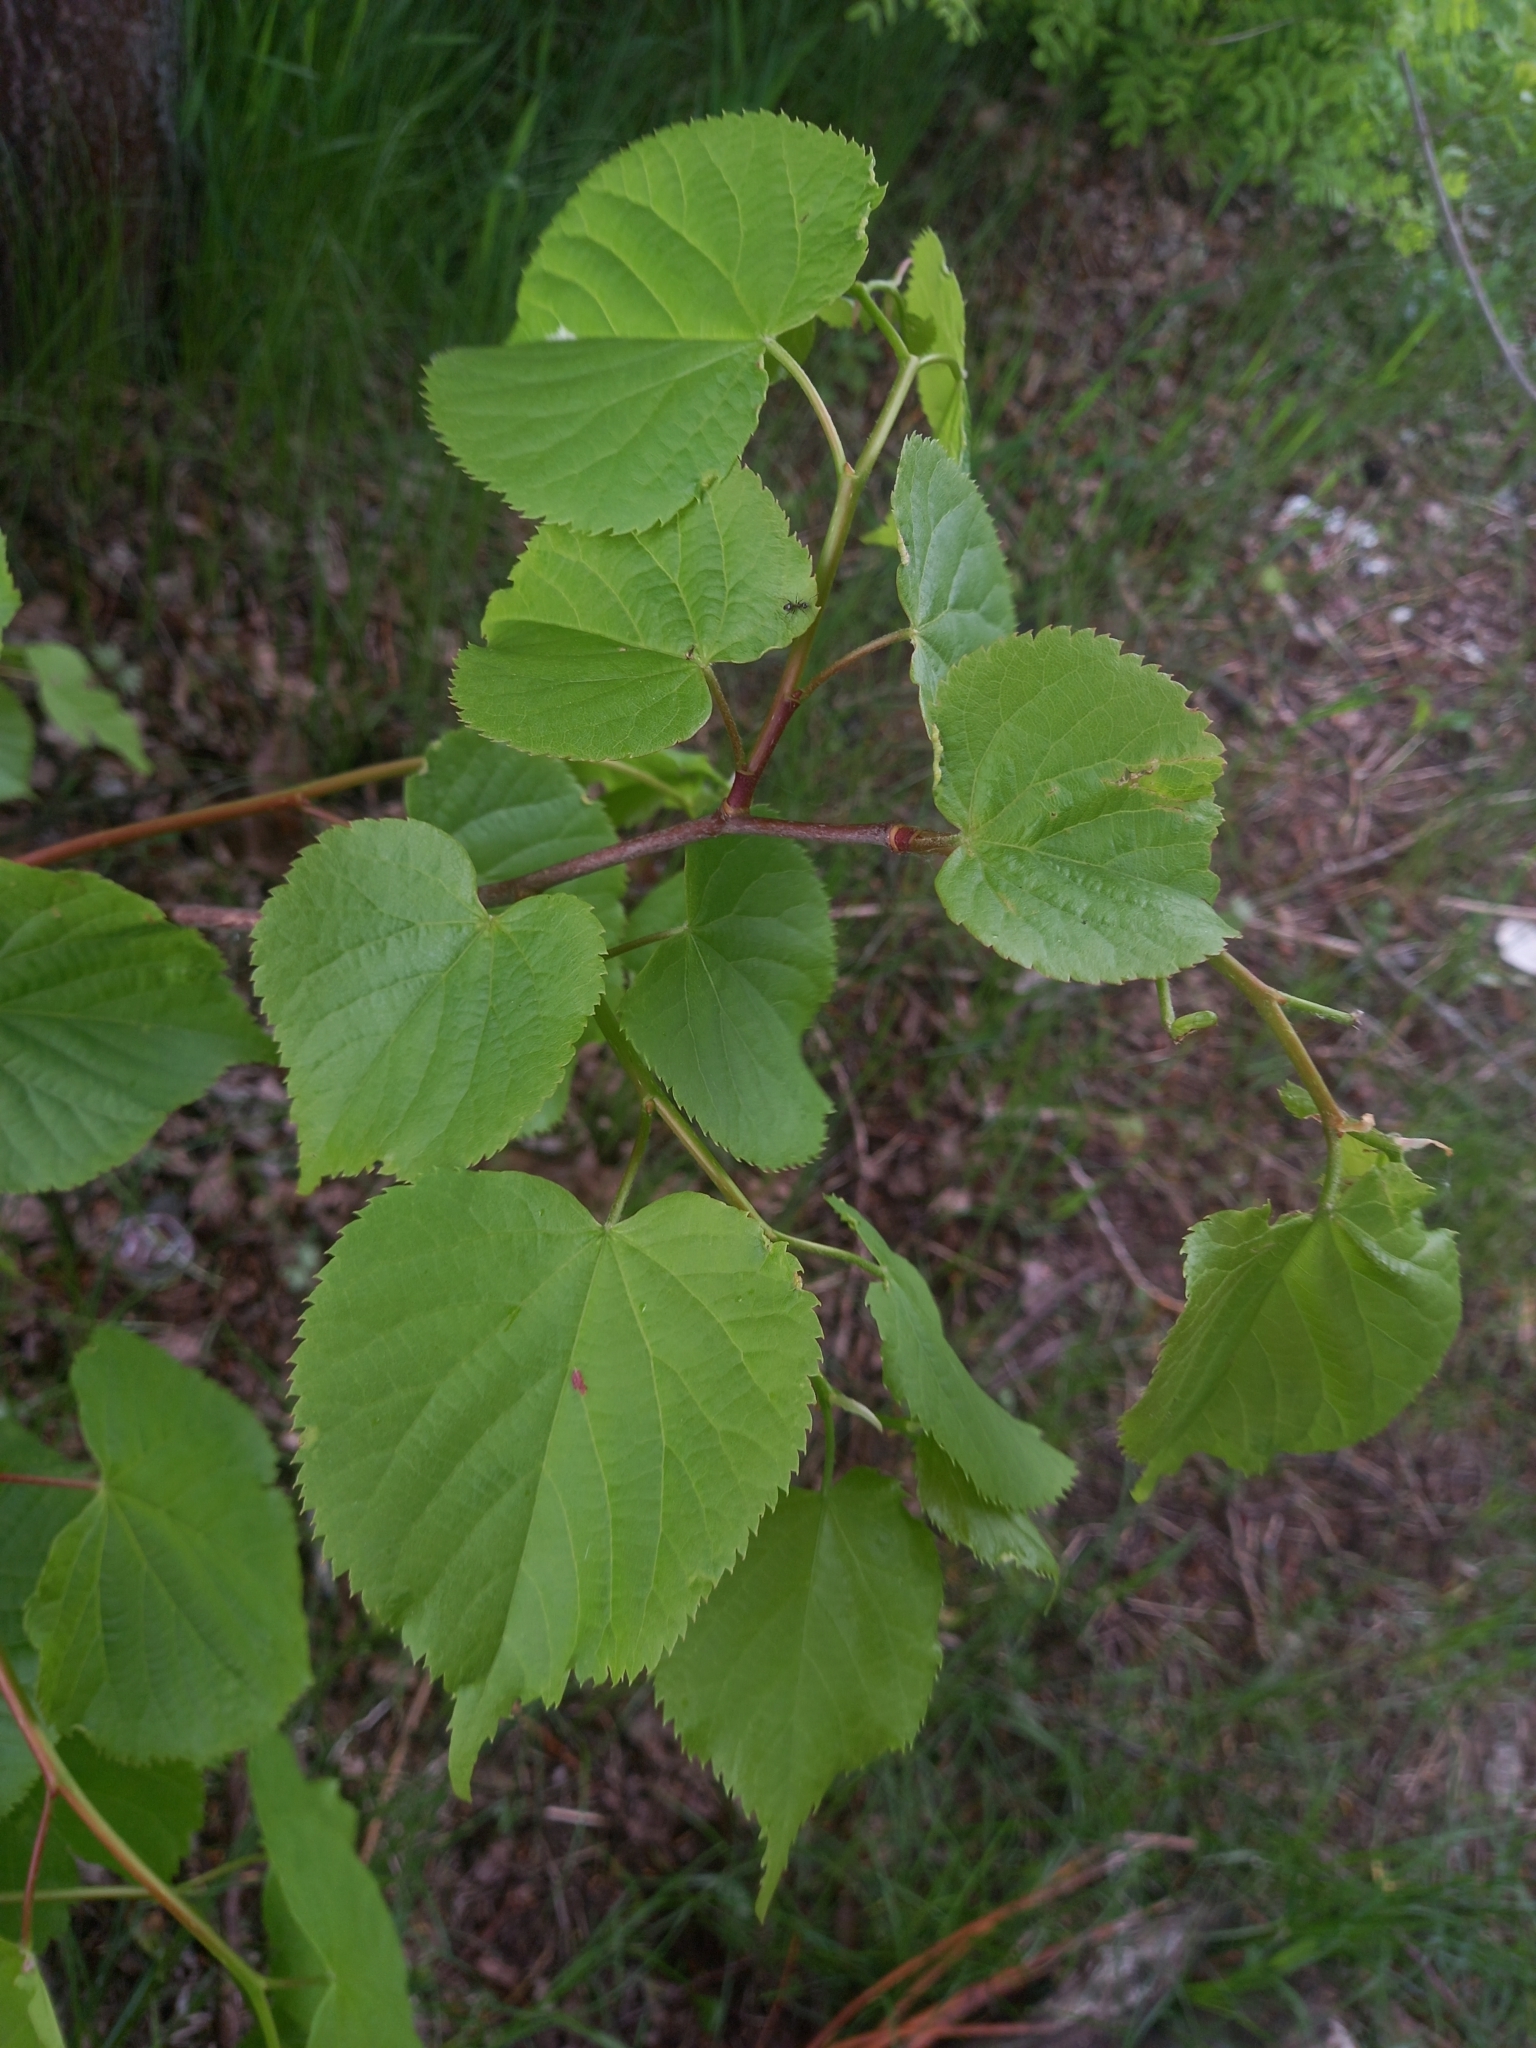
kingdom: Plantae
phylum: Tracheophyta
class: Magnoliopsida
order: Malvales
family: Malvaceae
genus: Tilia
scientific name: Tilia cordata
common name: Small-leaved lime
